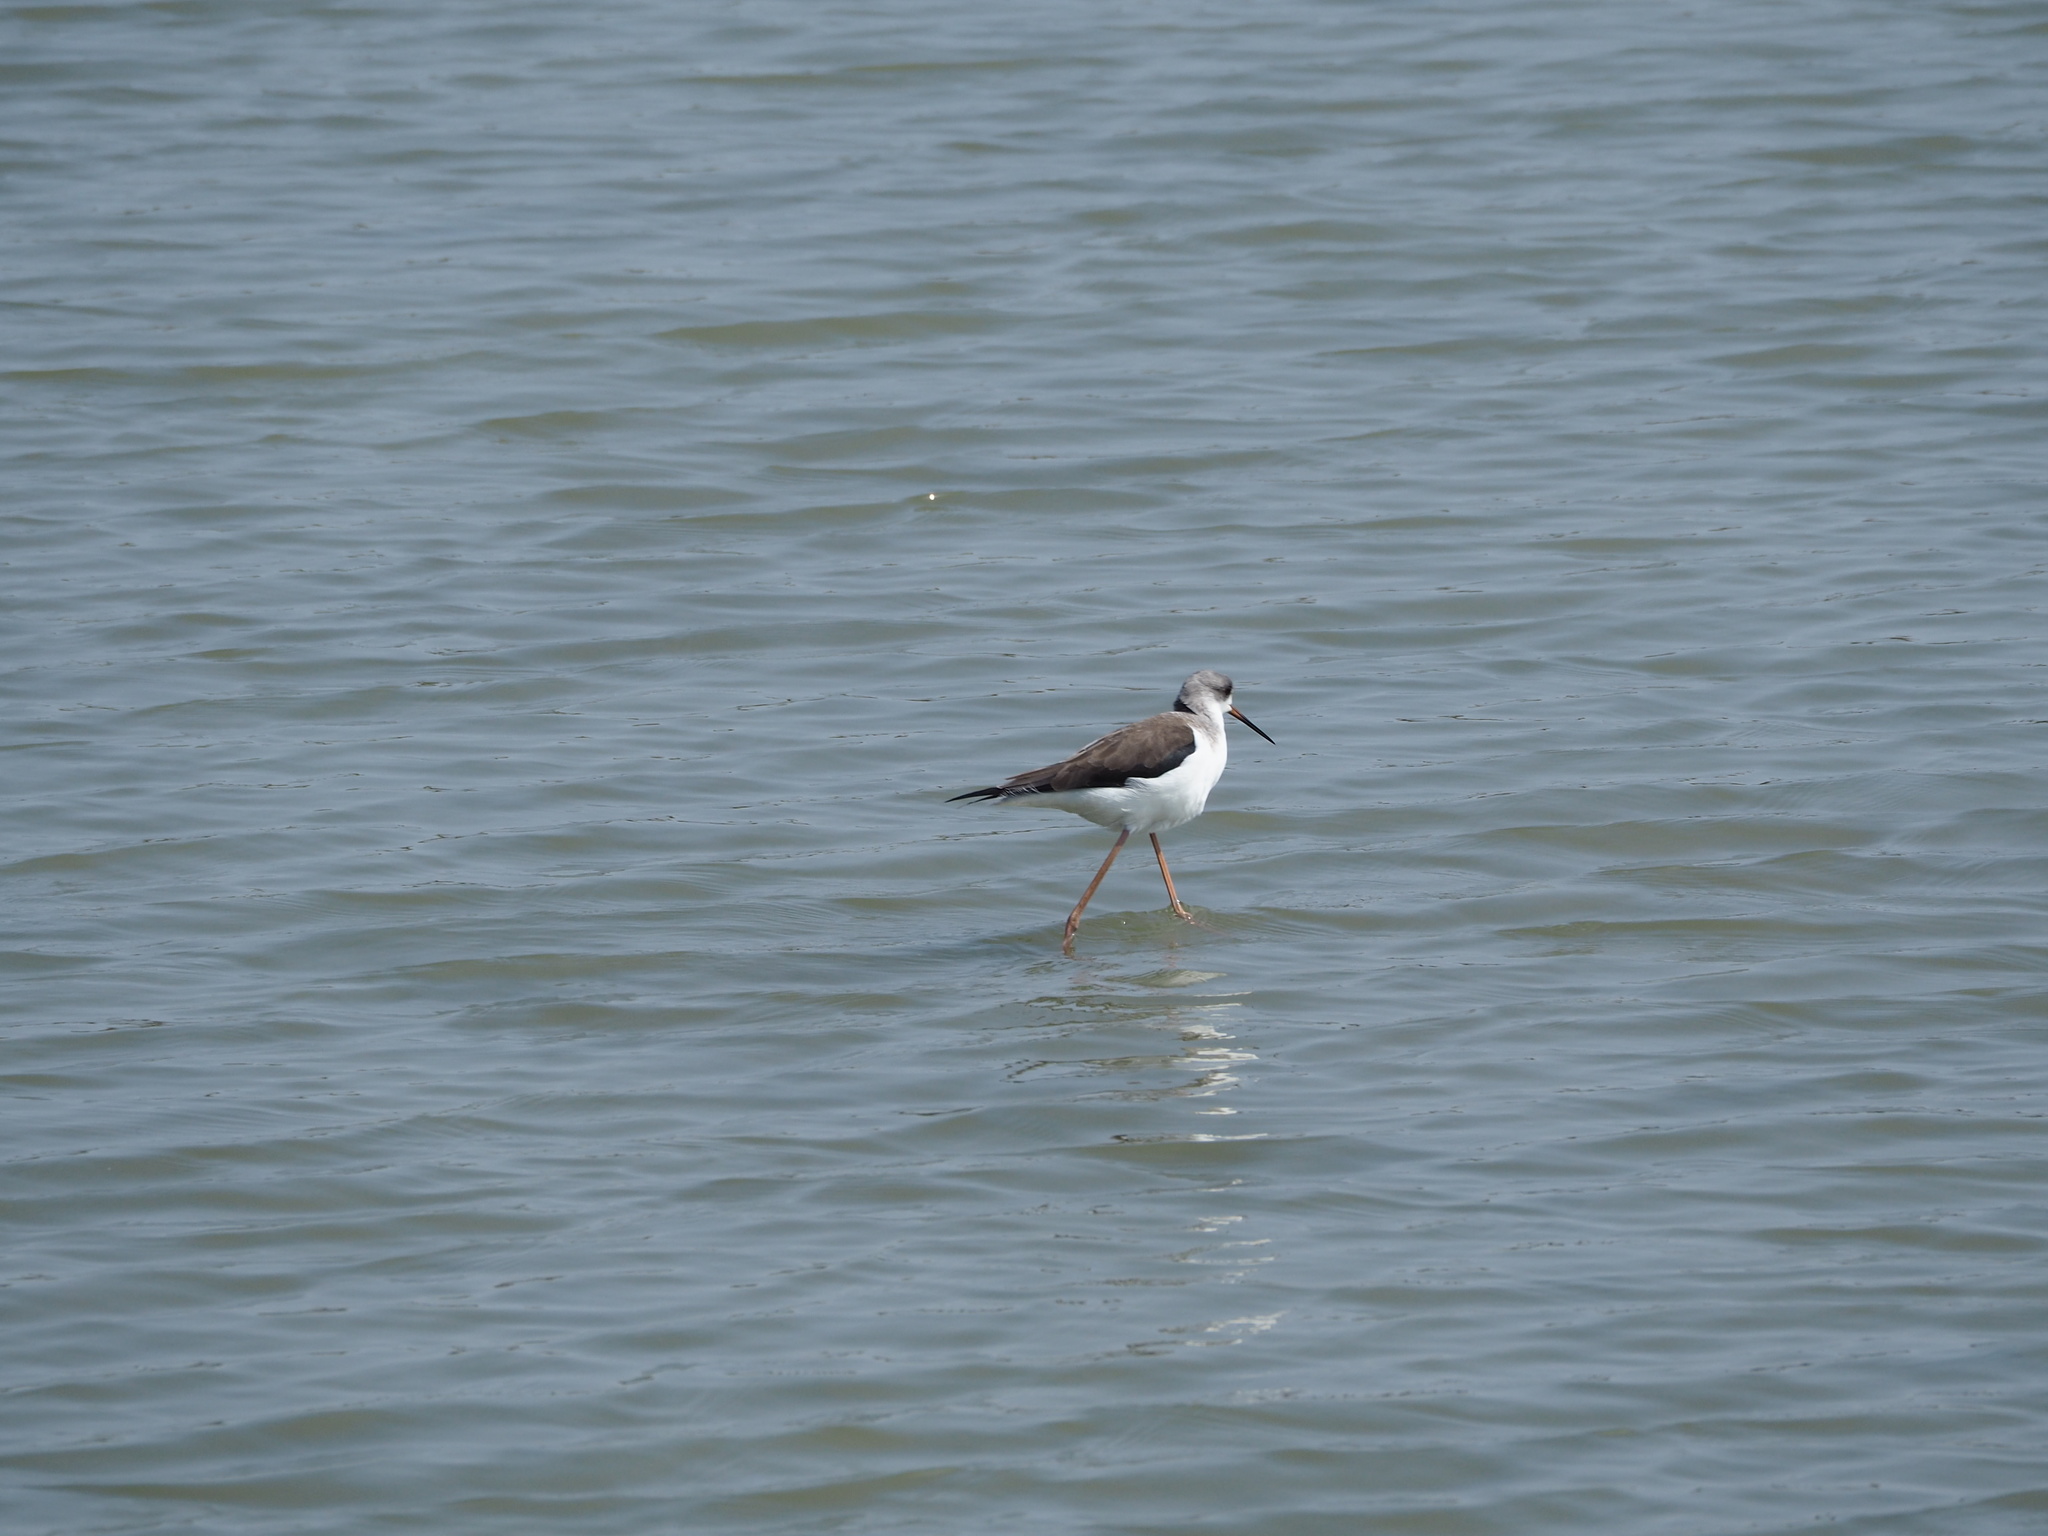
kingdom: Animalia
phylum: Chordata
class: Aves
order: Charadriiformes
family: Recurvirostridae
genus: Himantopus
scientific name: Himantopus himantopus
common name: Black-winged stilt
